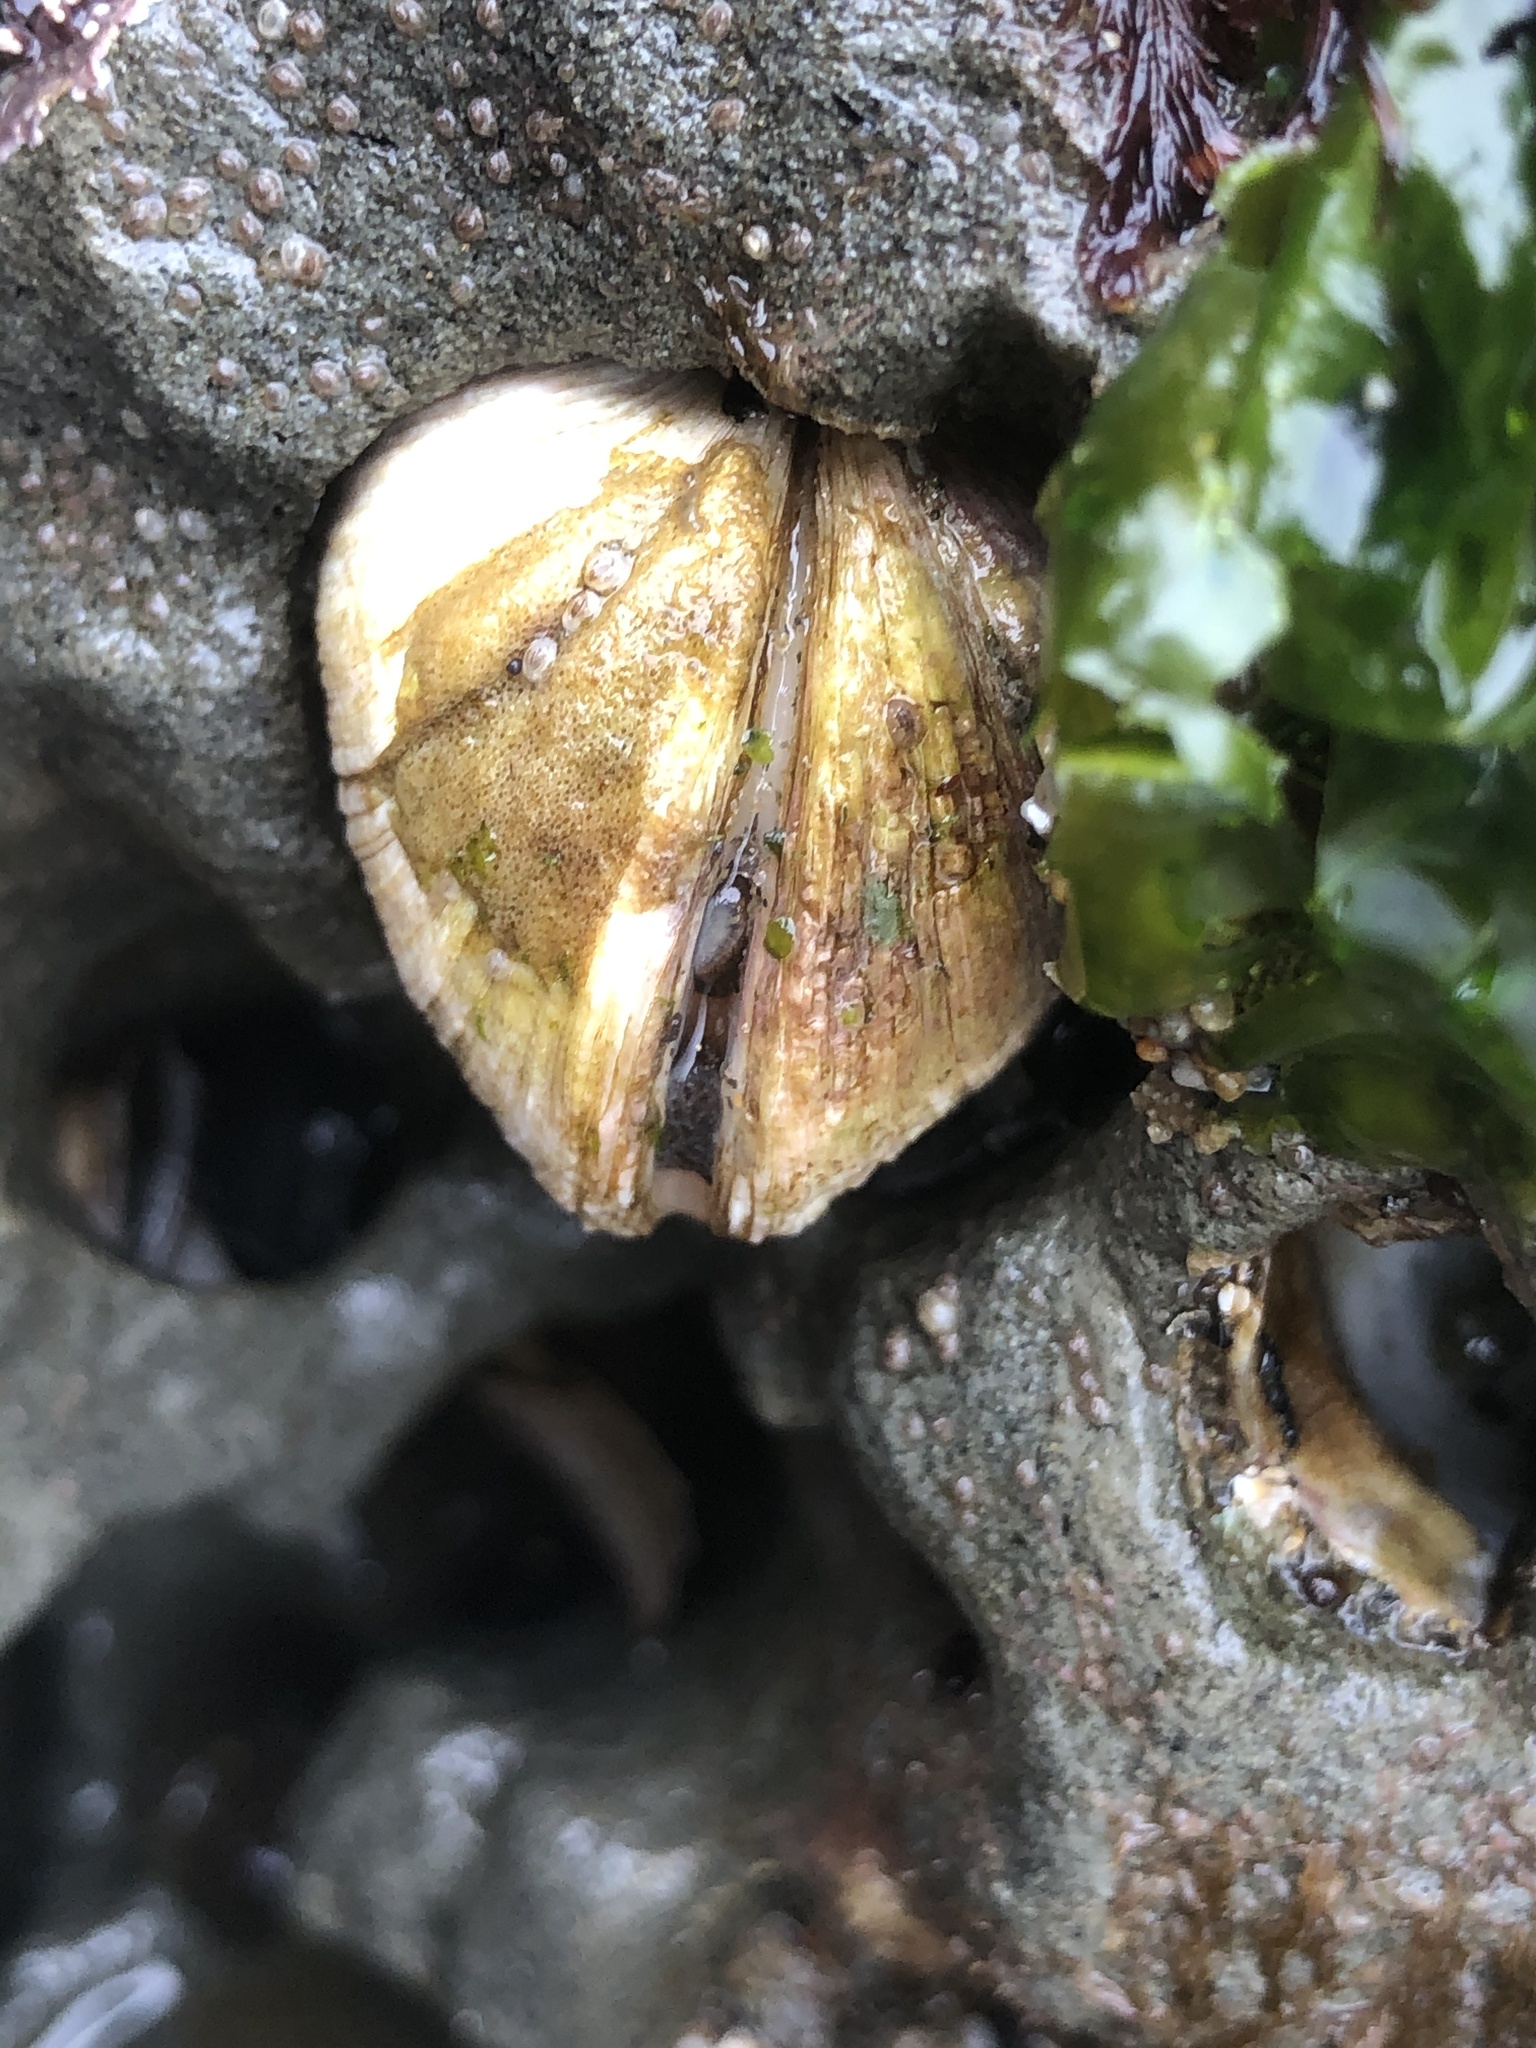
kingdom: Animalia
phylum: Mollusca
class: Bivalvia
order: Venerida
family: Veneridae
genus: Petricola
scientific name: Petricola carditoides
